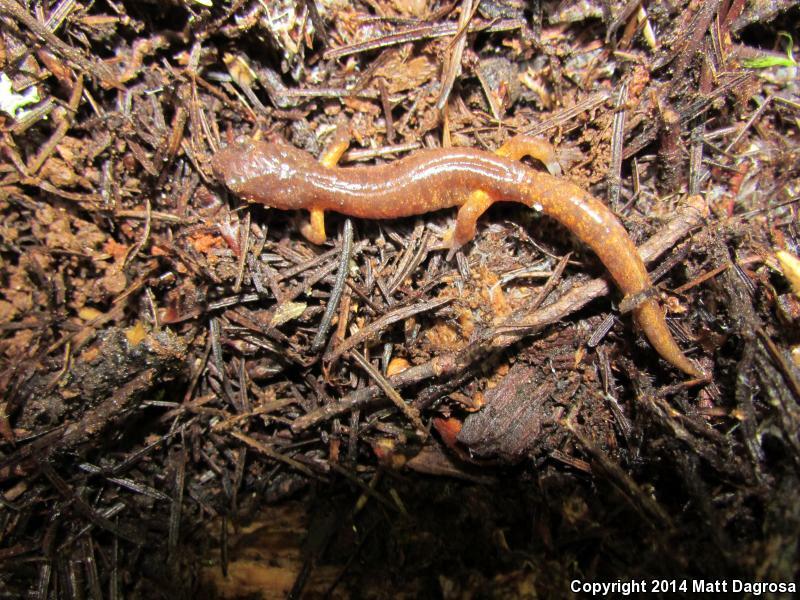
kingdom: Animalia
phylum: Chordata
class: Amphibia
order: Caudata
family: Plethodontidae
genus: Ensatina
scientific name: Ensatina eschscholtzii
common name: Ensatina
